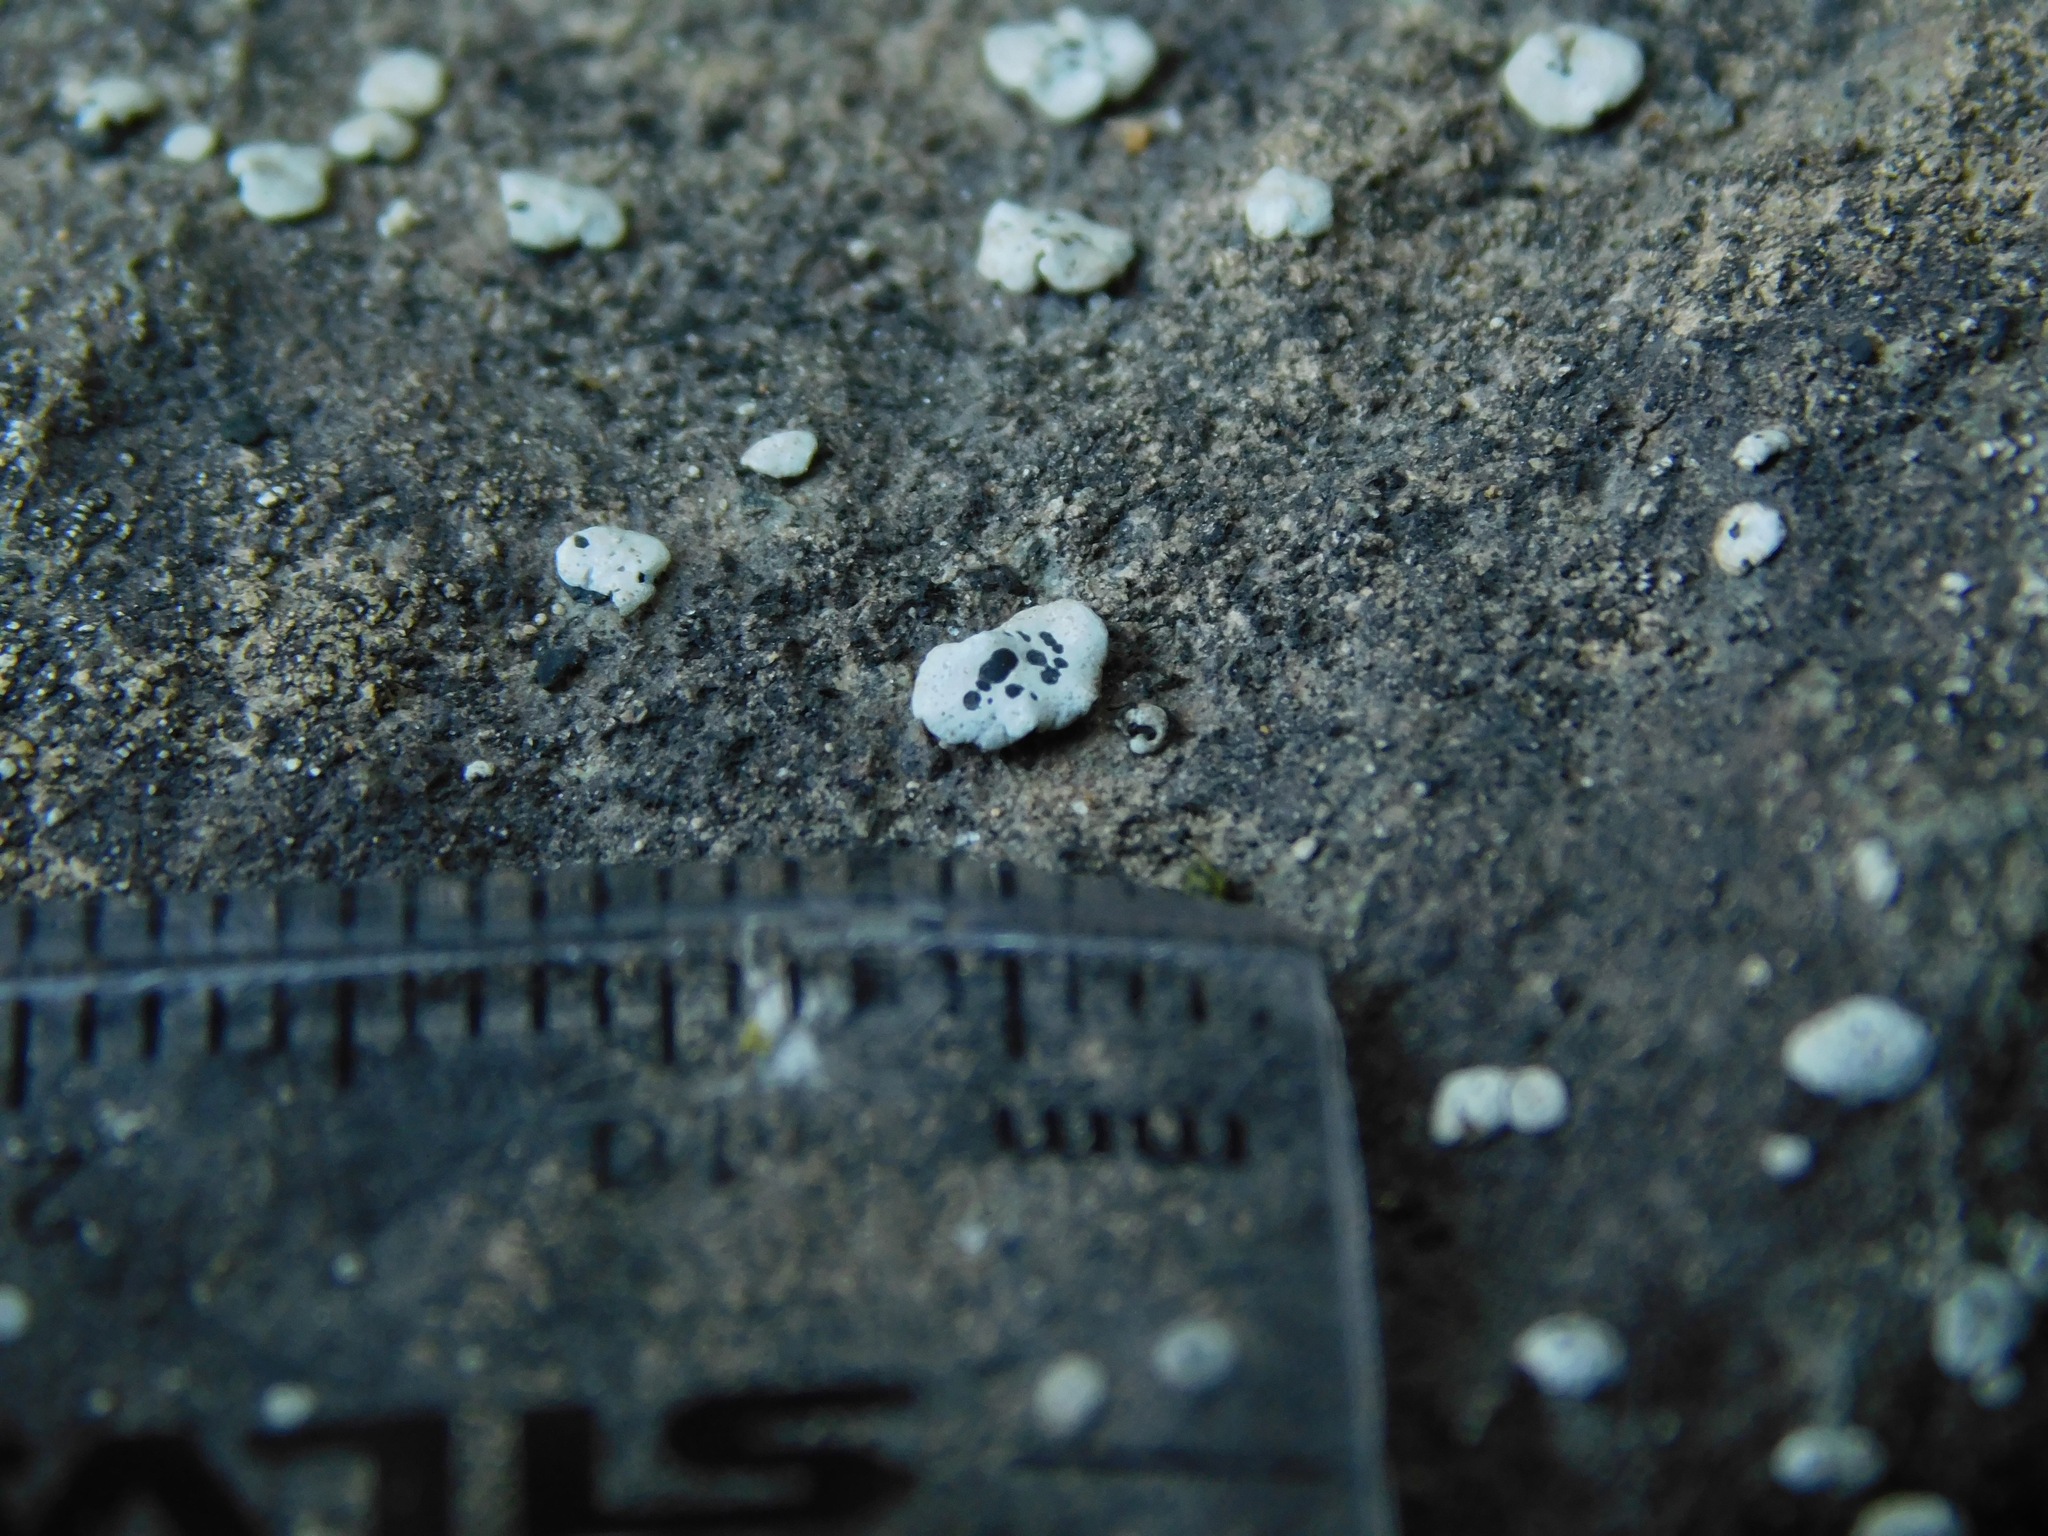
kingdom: Fungi
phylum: Ascomycota
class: Lecanoromycetes
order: Caliciales
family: Caliciaceae
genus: Dermiscellum
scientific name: Dermiscellum oulocheilum
